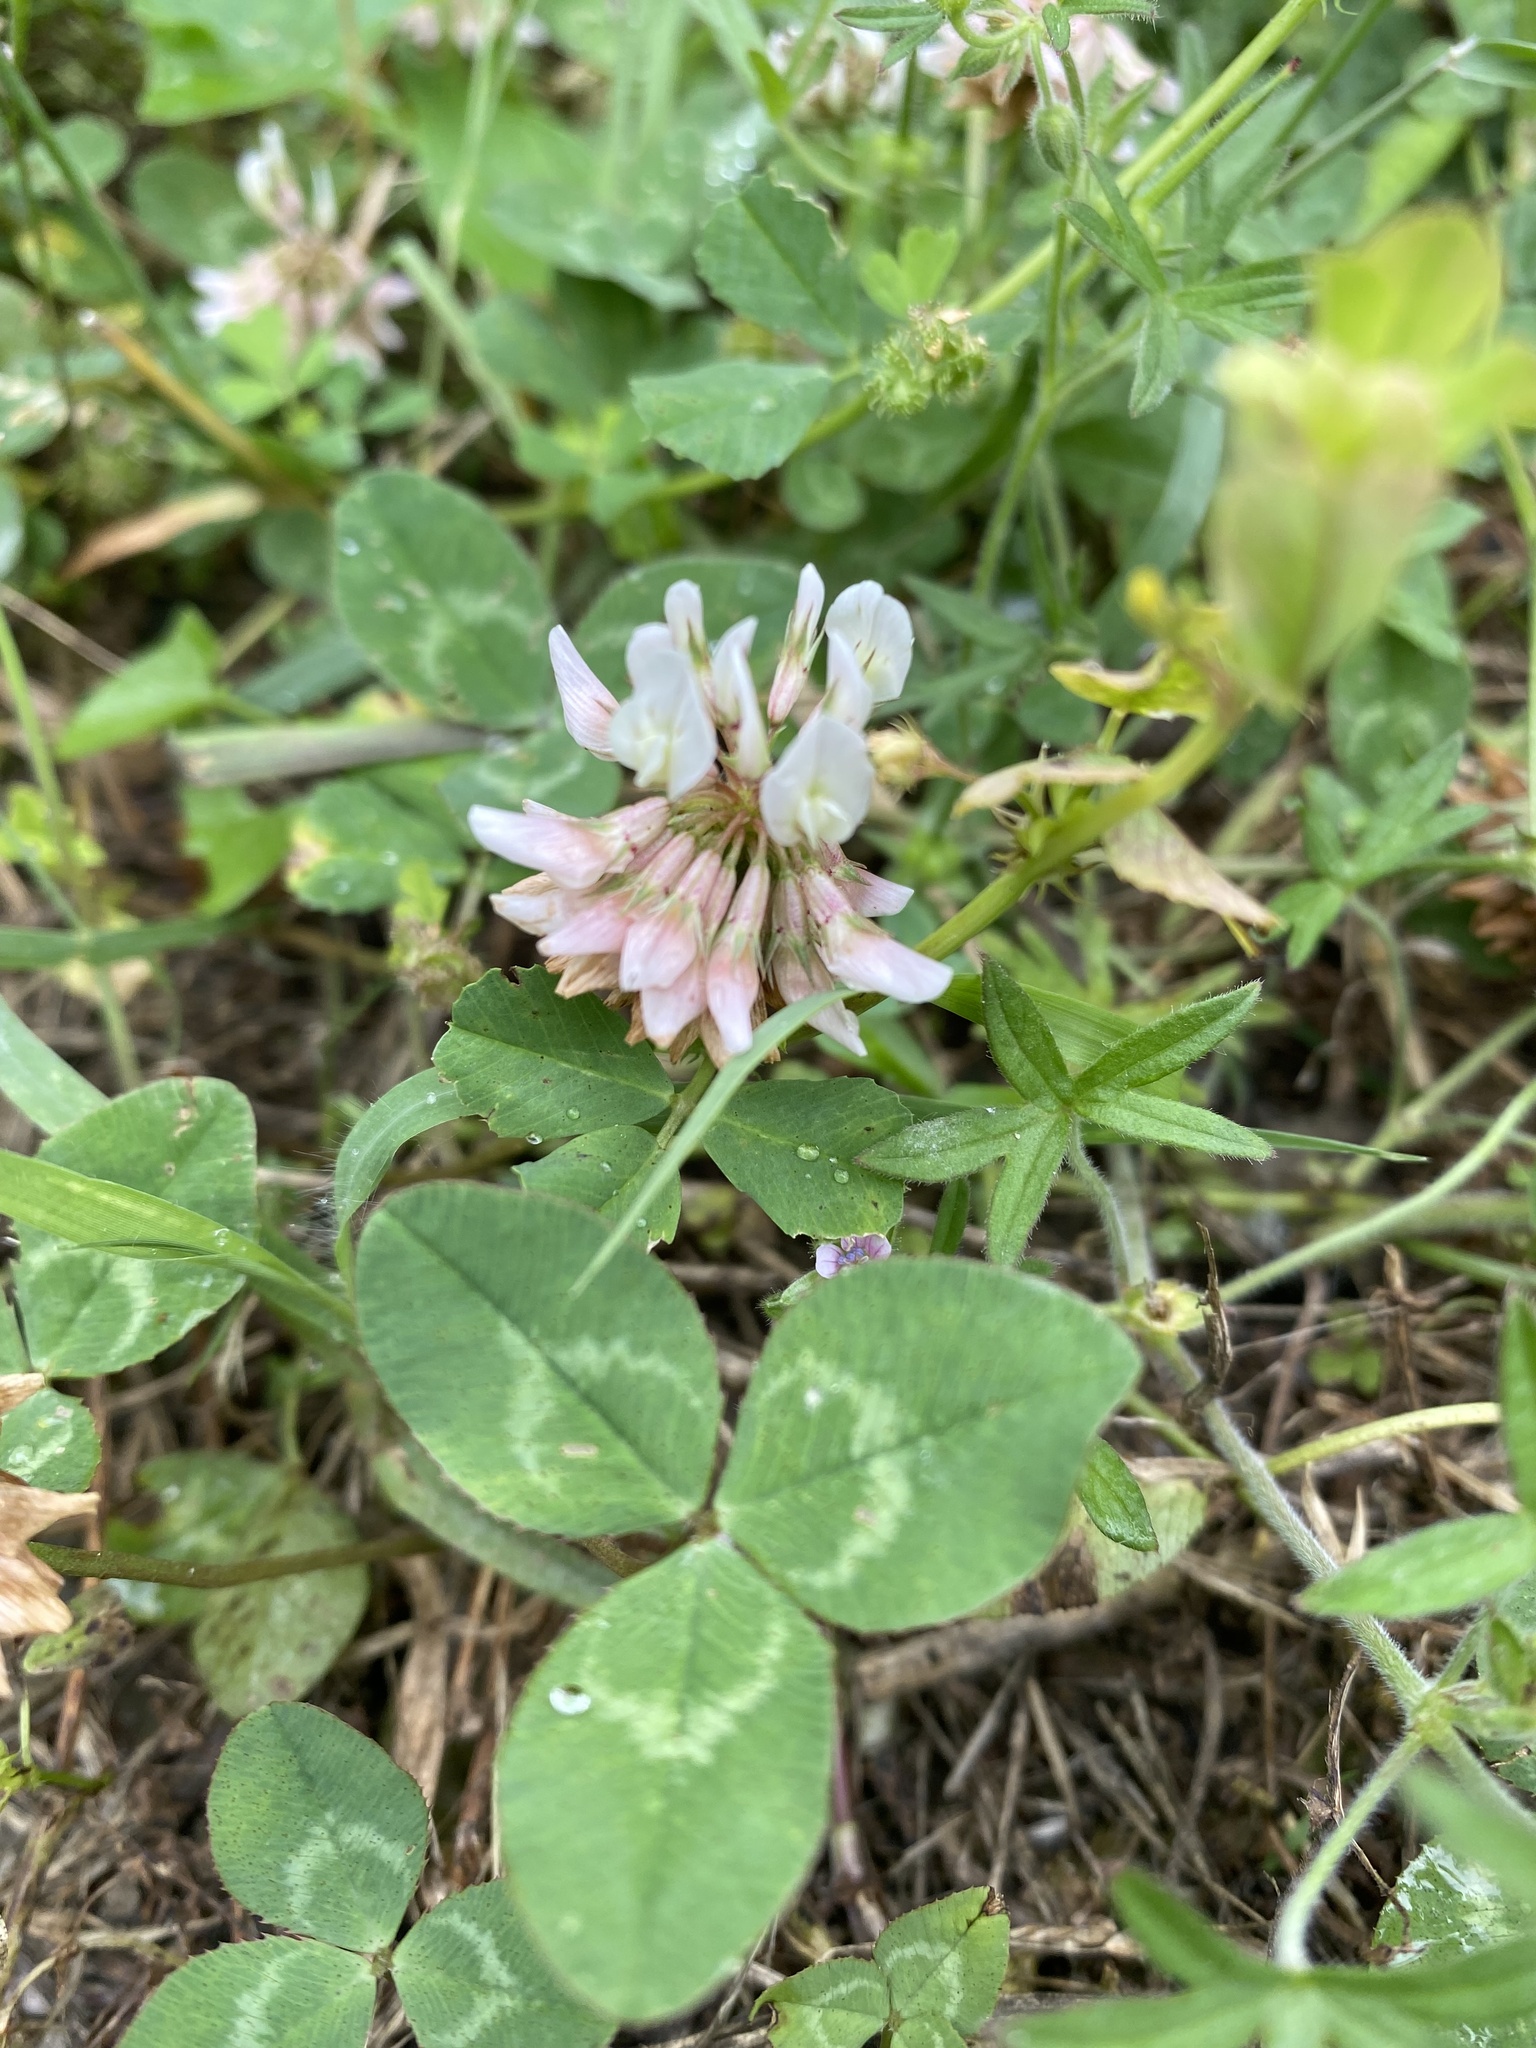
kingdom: Plantae
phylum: Tracheophyta
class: Magnoliopsida
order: Fabales
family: Fabaceae
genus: Trifolium
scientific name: Trifolium repens
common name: White clover
